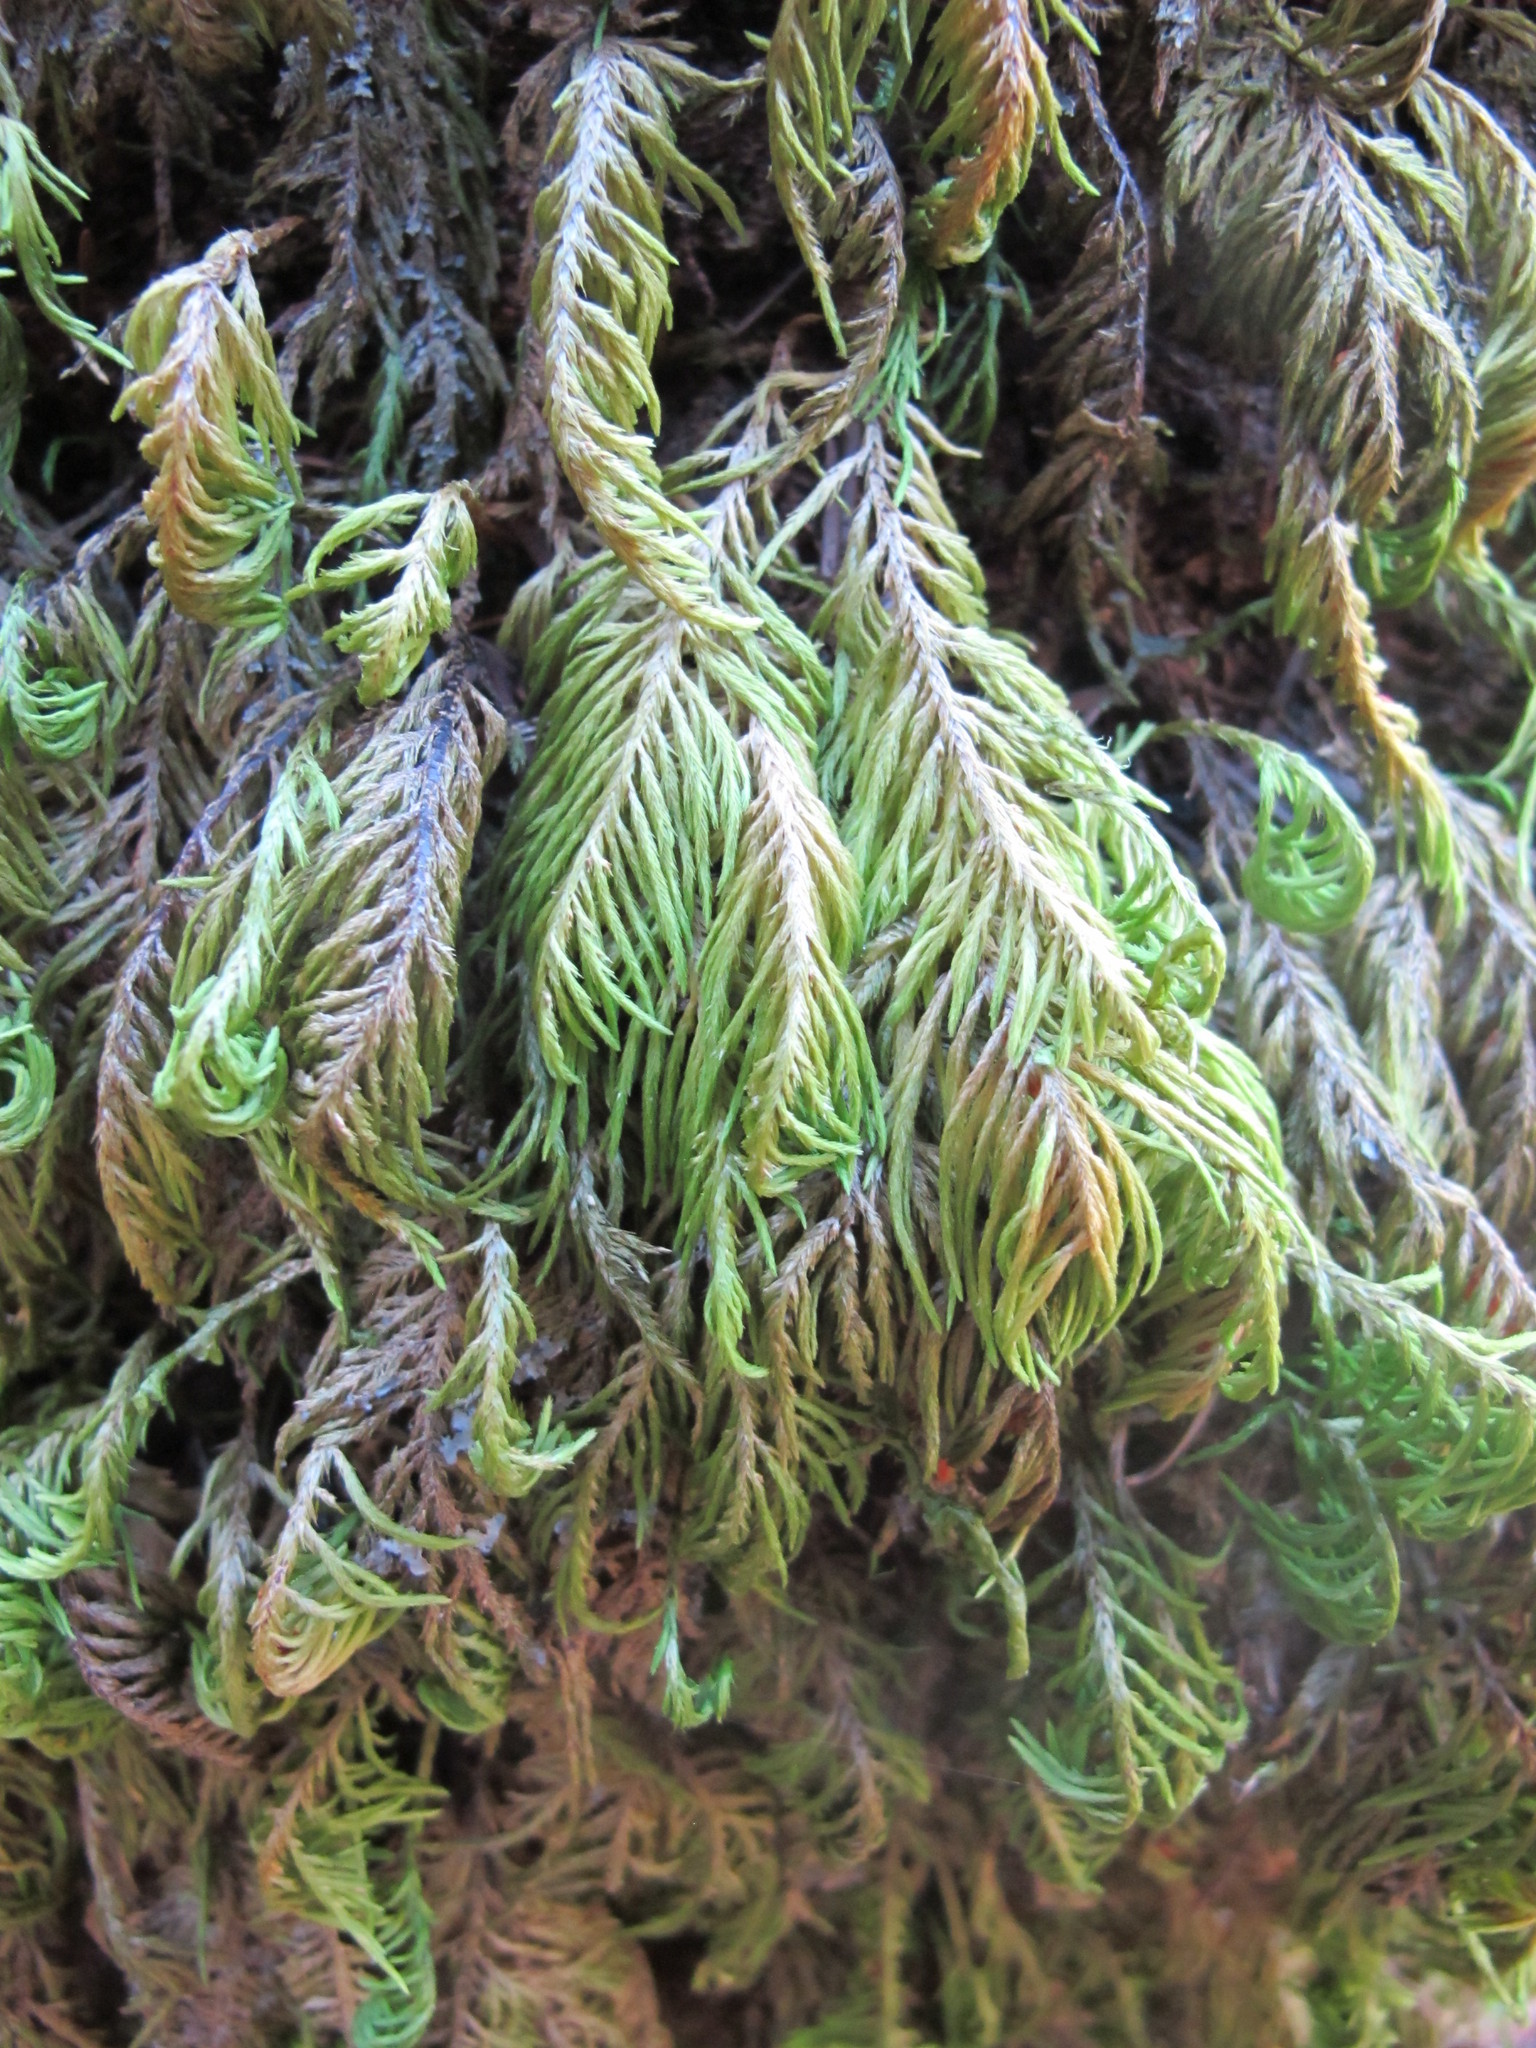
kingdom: Plantae
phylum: Bryophyta
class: Bryopsida
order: Hypnales
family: Cryphaeaceae
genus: Dendroalsia
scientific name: Dendroalsia abietina
